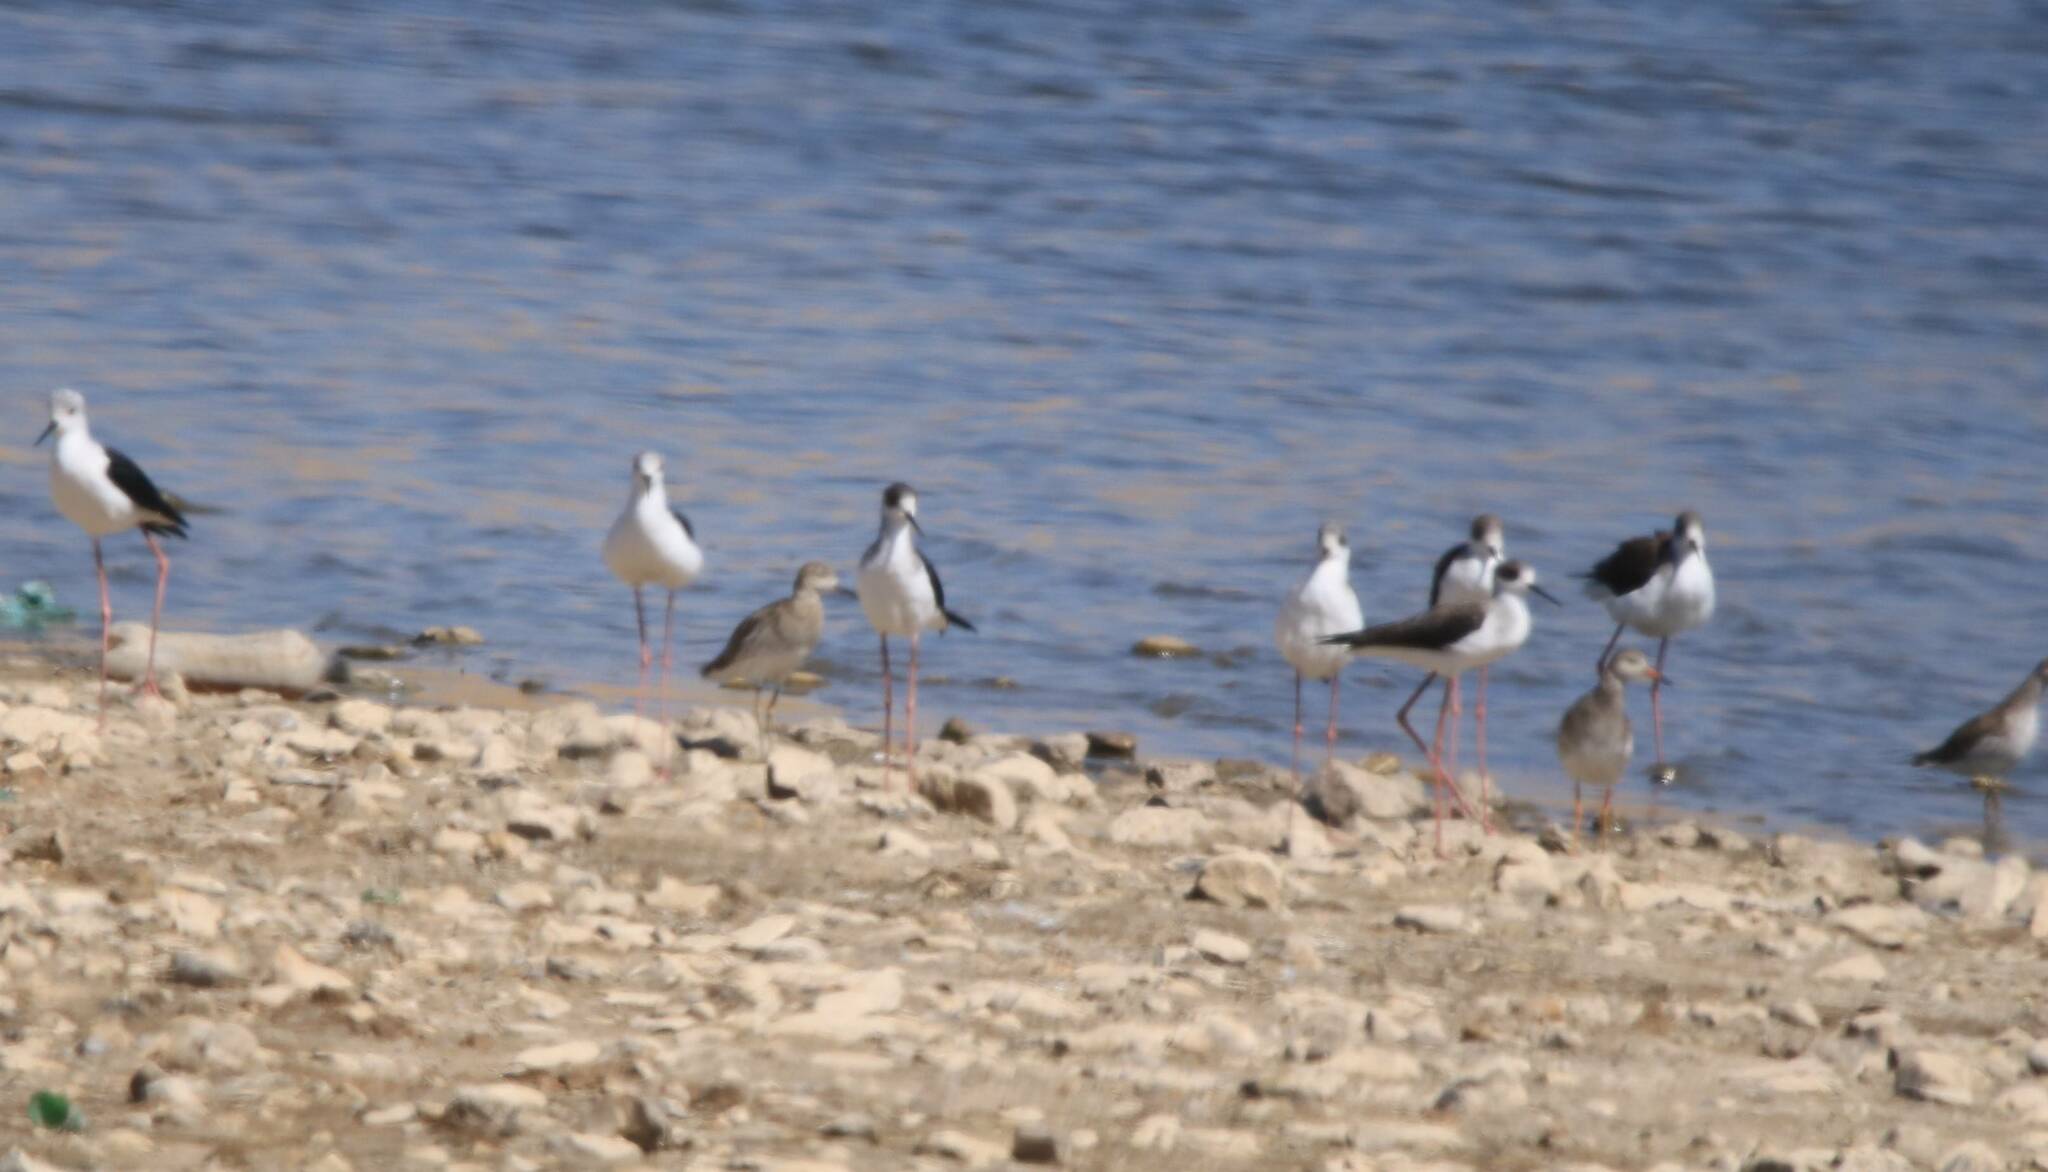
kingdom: Animalia
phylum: Chordata
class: Aves
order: Charadriiformes
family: Recurvirostridae
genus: Himantopus
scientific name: Himantopus himantopus
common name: Black-winged stilt
